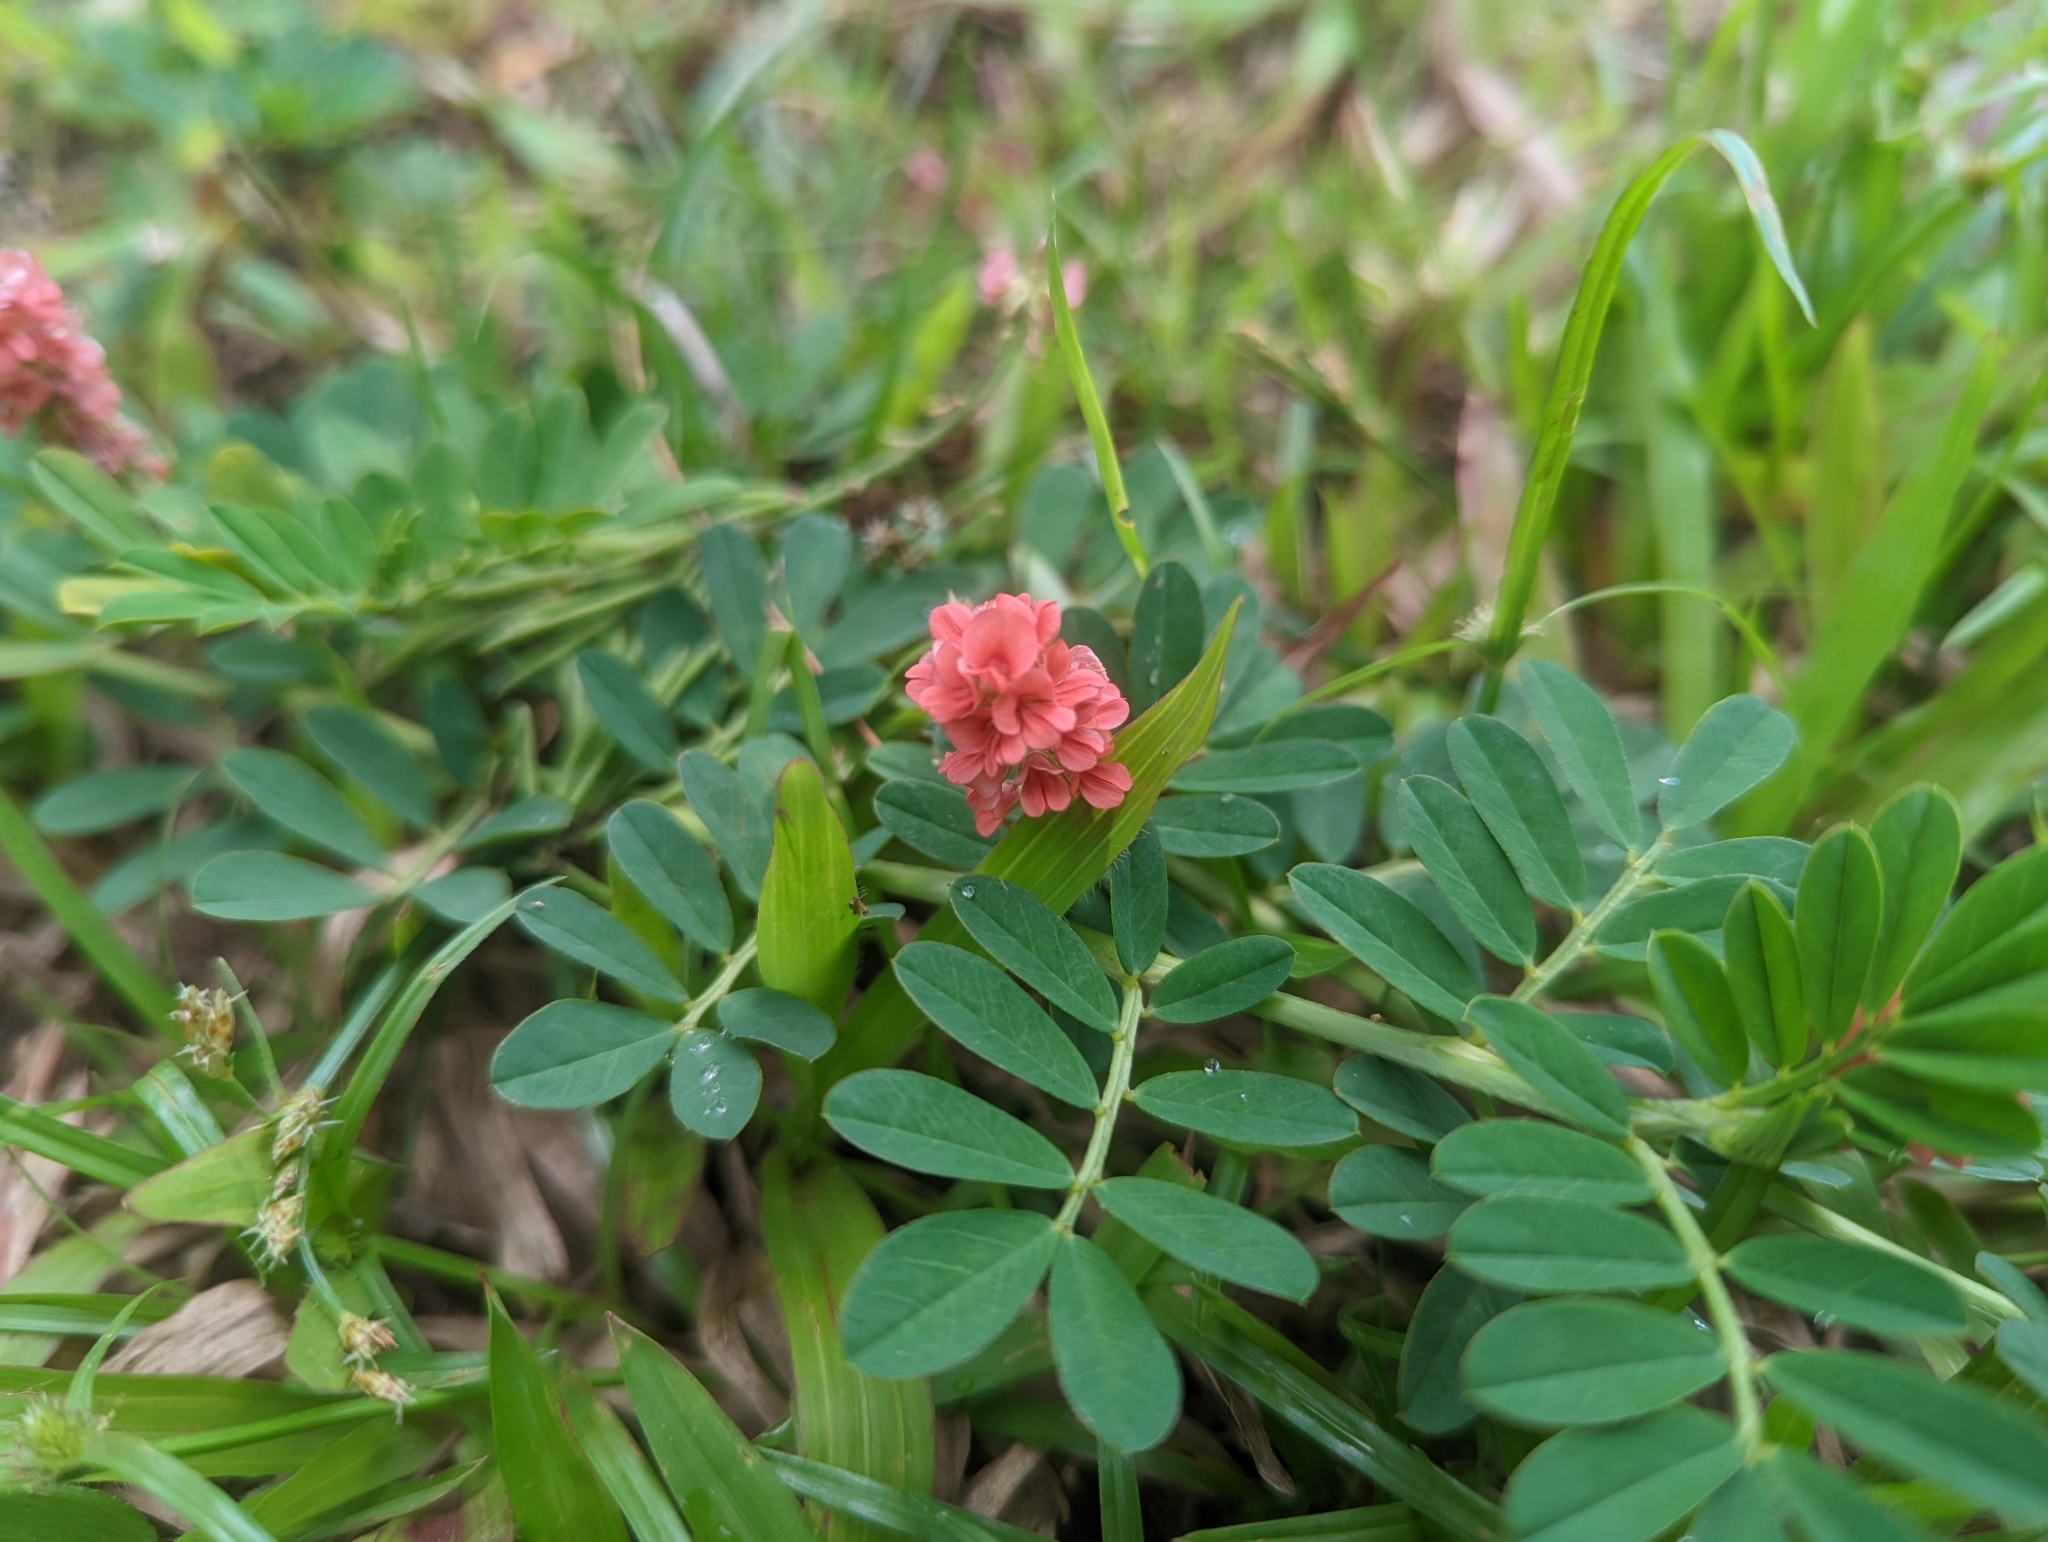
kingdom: Plantae
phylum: Tracheophyta
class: Magnoliopsida
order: Fabales
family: Fabaceae
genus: Indigofera
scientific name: Indigofera hendecaphylla
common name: Trailing indigo
